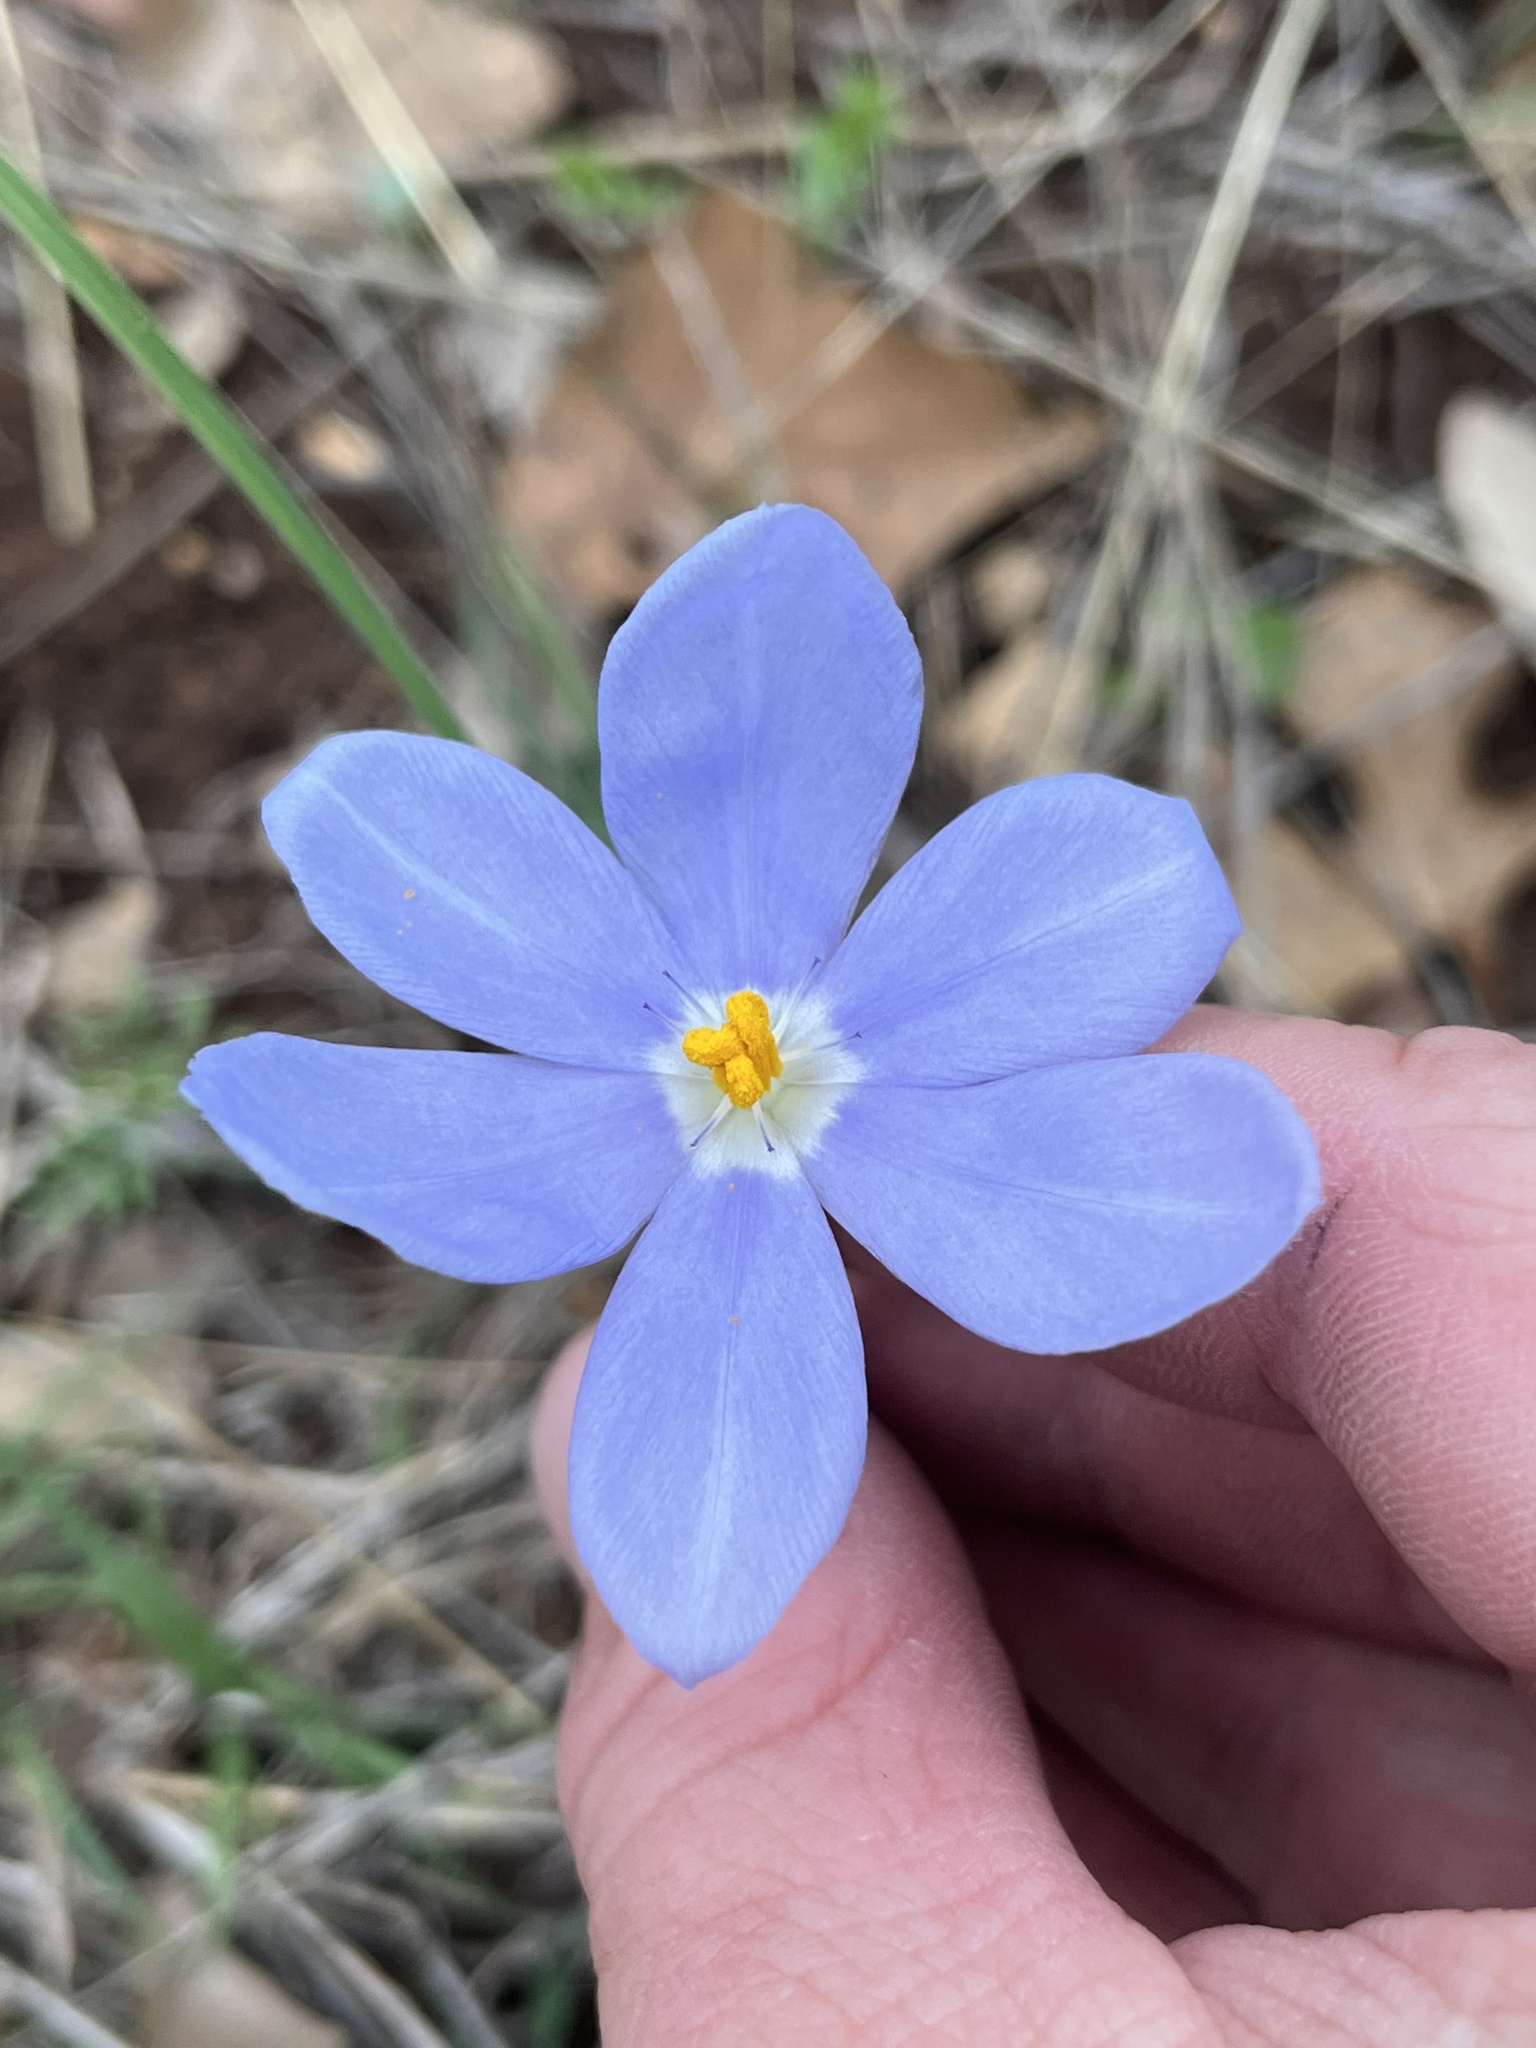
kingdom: Plantae
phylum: Tracheophyta
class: Liliopsida
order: Asparagales
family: Iridaceae
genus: Nemastylis
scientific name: Nemastylis geminiflora
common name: Prairie celestial
